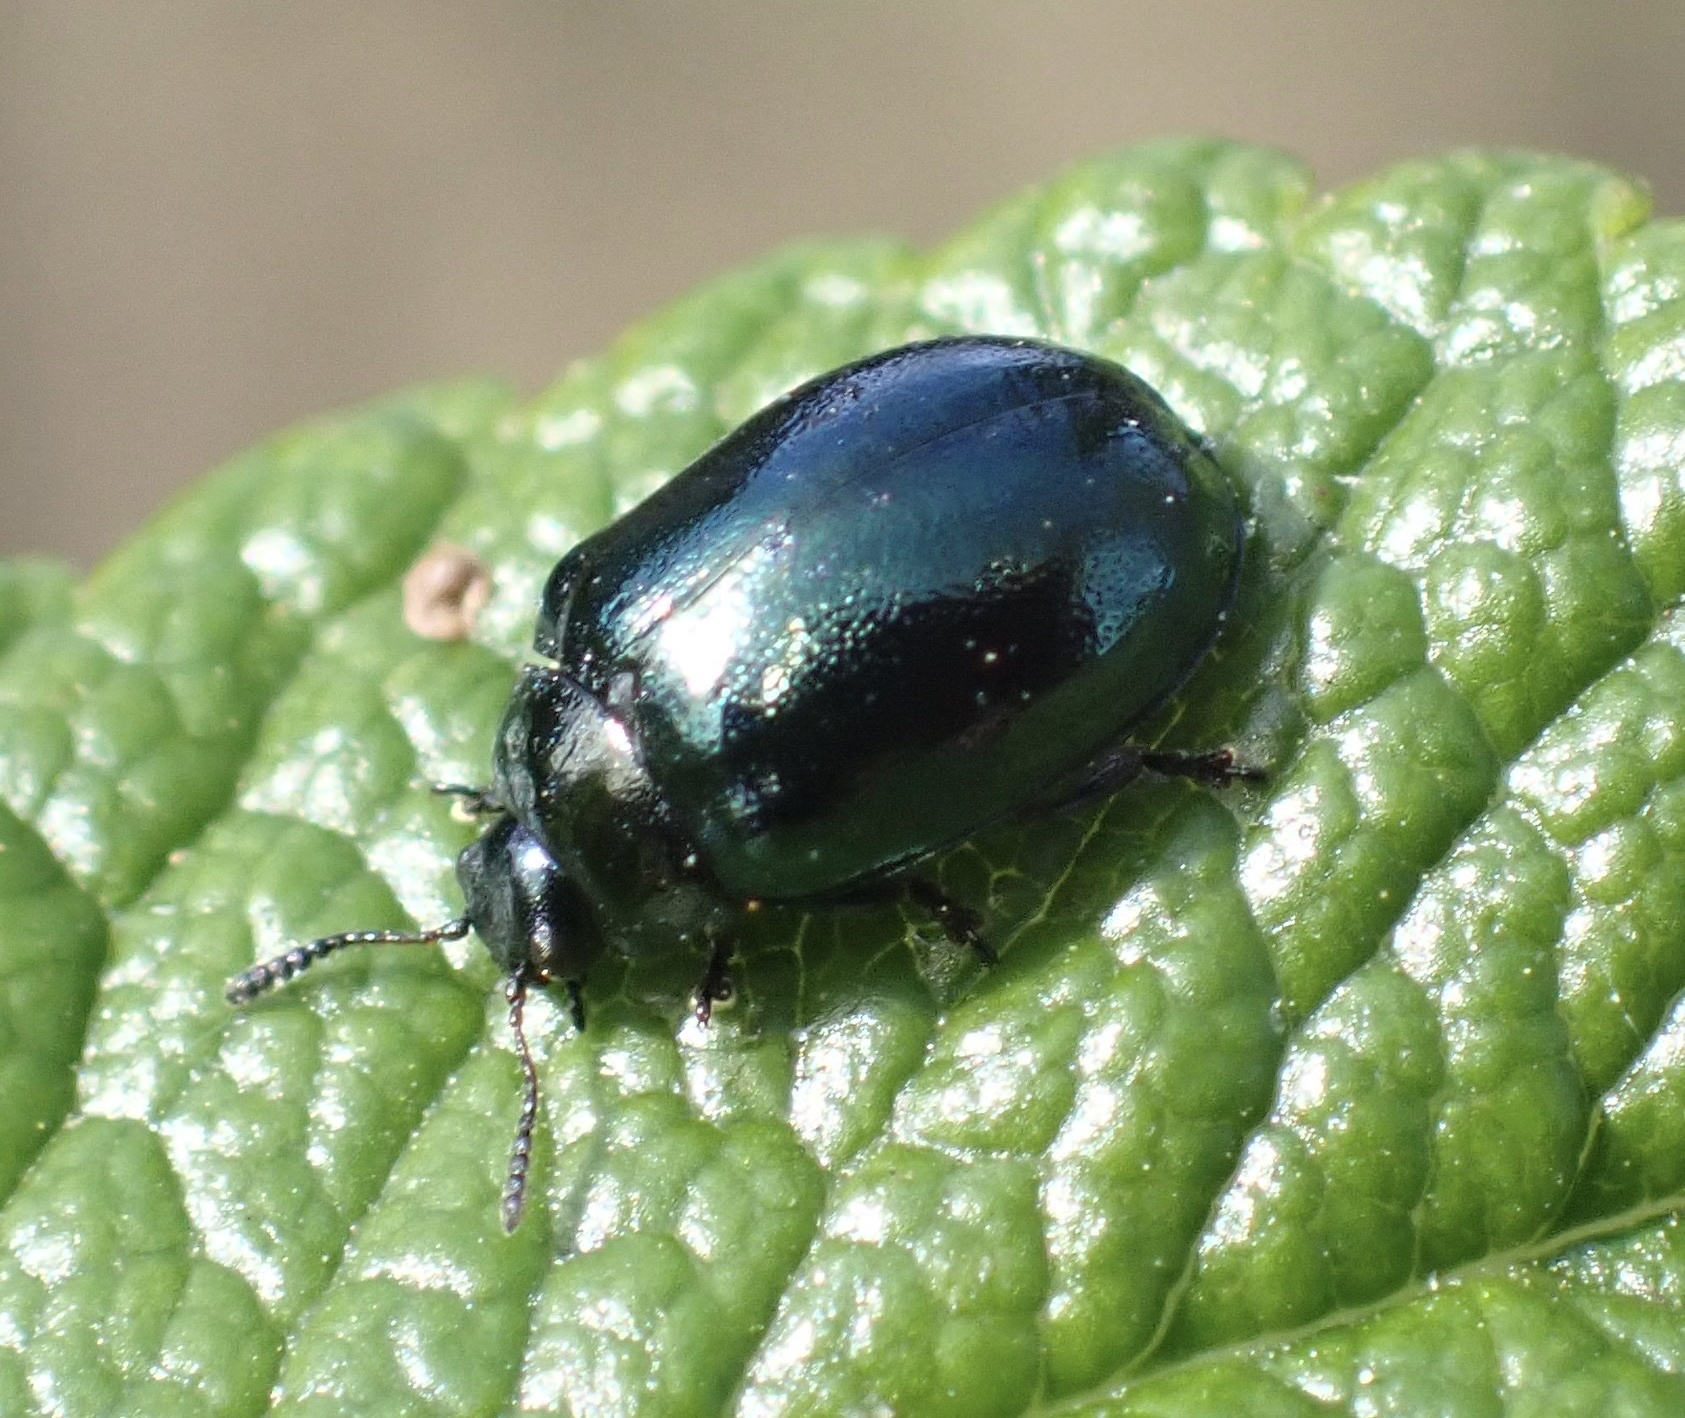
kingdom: Animalia
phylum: Arthropoda
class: Insecta
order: Coleoptera
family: Chrysomelidae
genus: Plagiodera
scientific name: Plagiodera versicolora
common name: Imported willow leaf beetle
